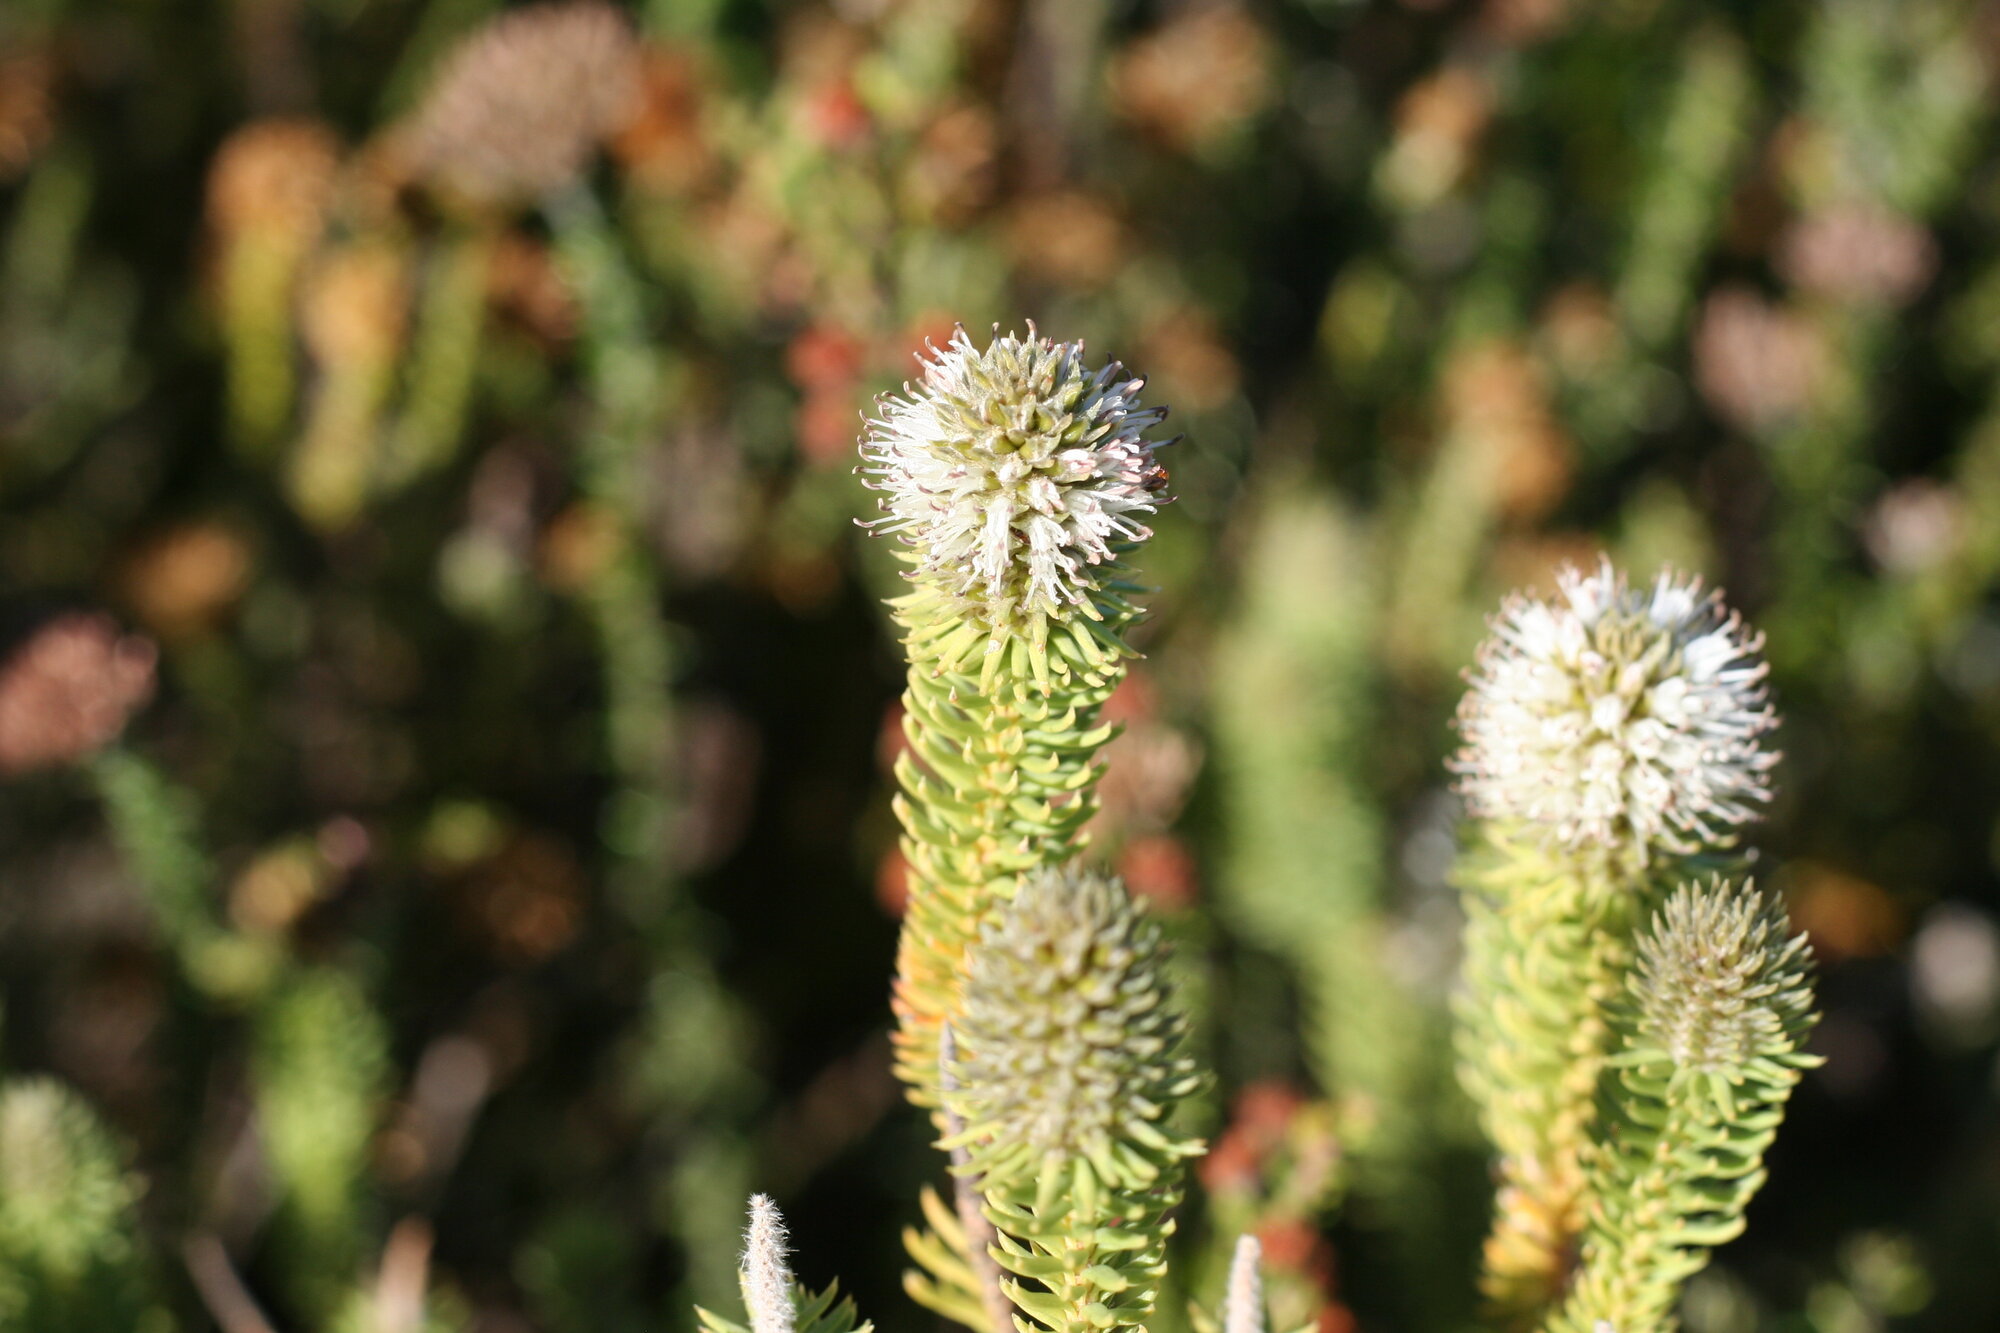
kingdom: Plantae
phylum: Tracheophyta
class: Magnoliopsida
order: Lamiales
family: Stilbaceae
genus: Stilbe
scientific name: Stilbe vestita
